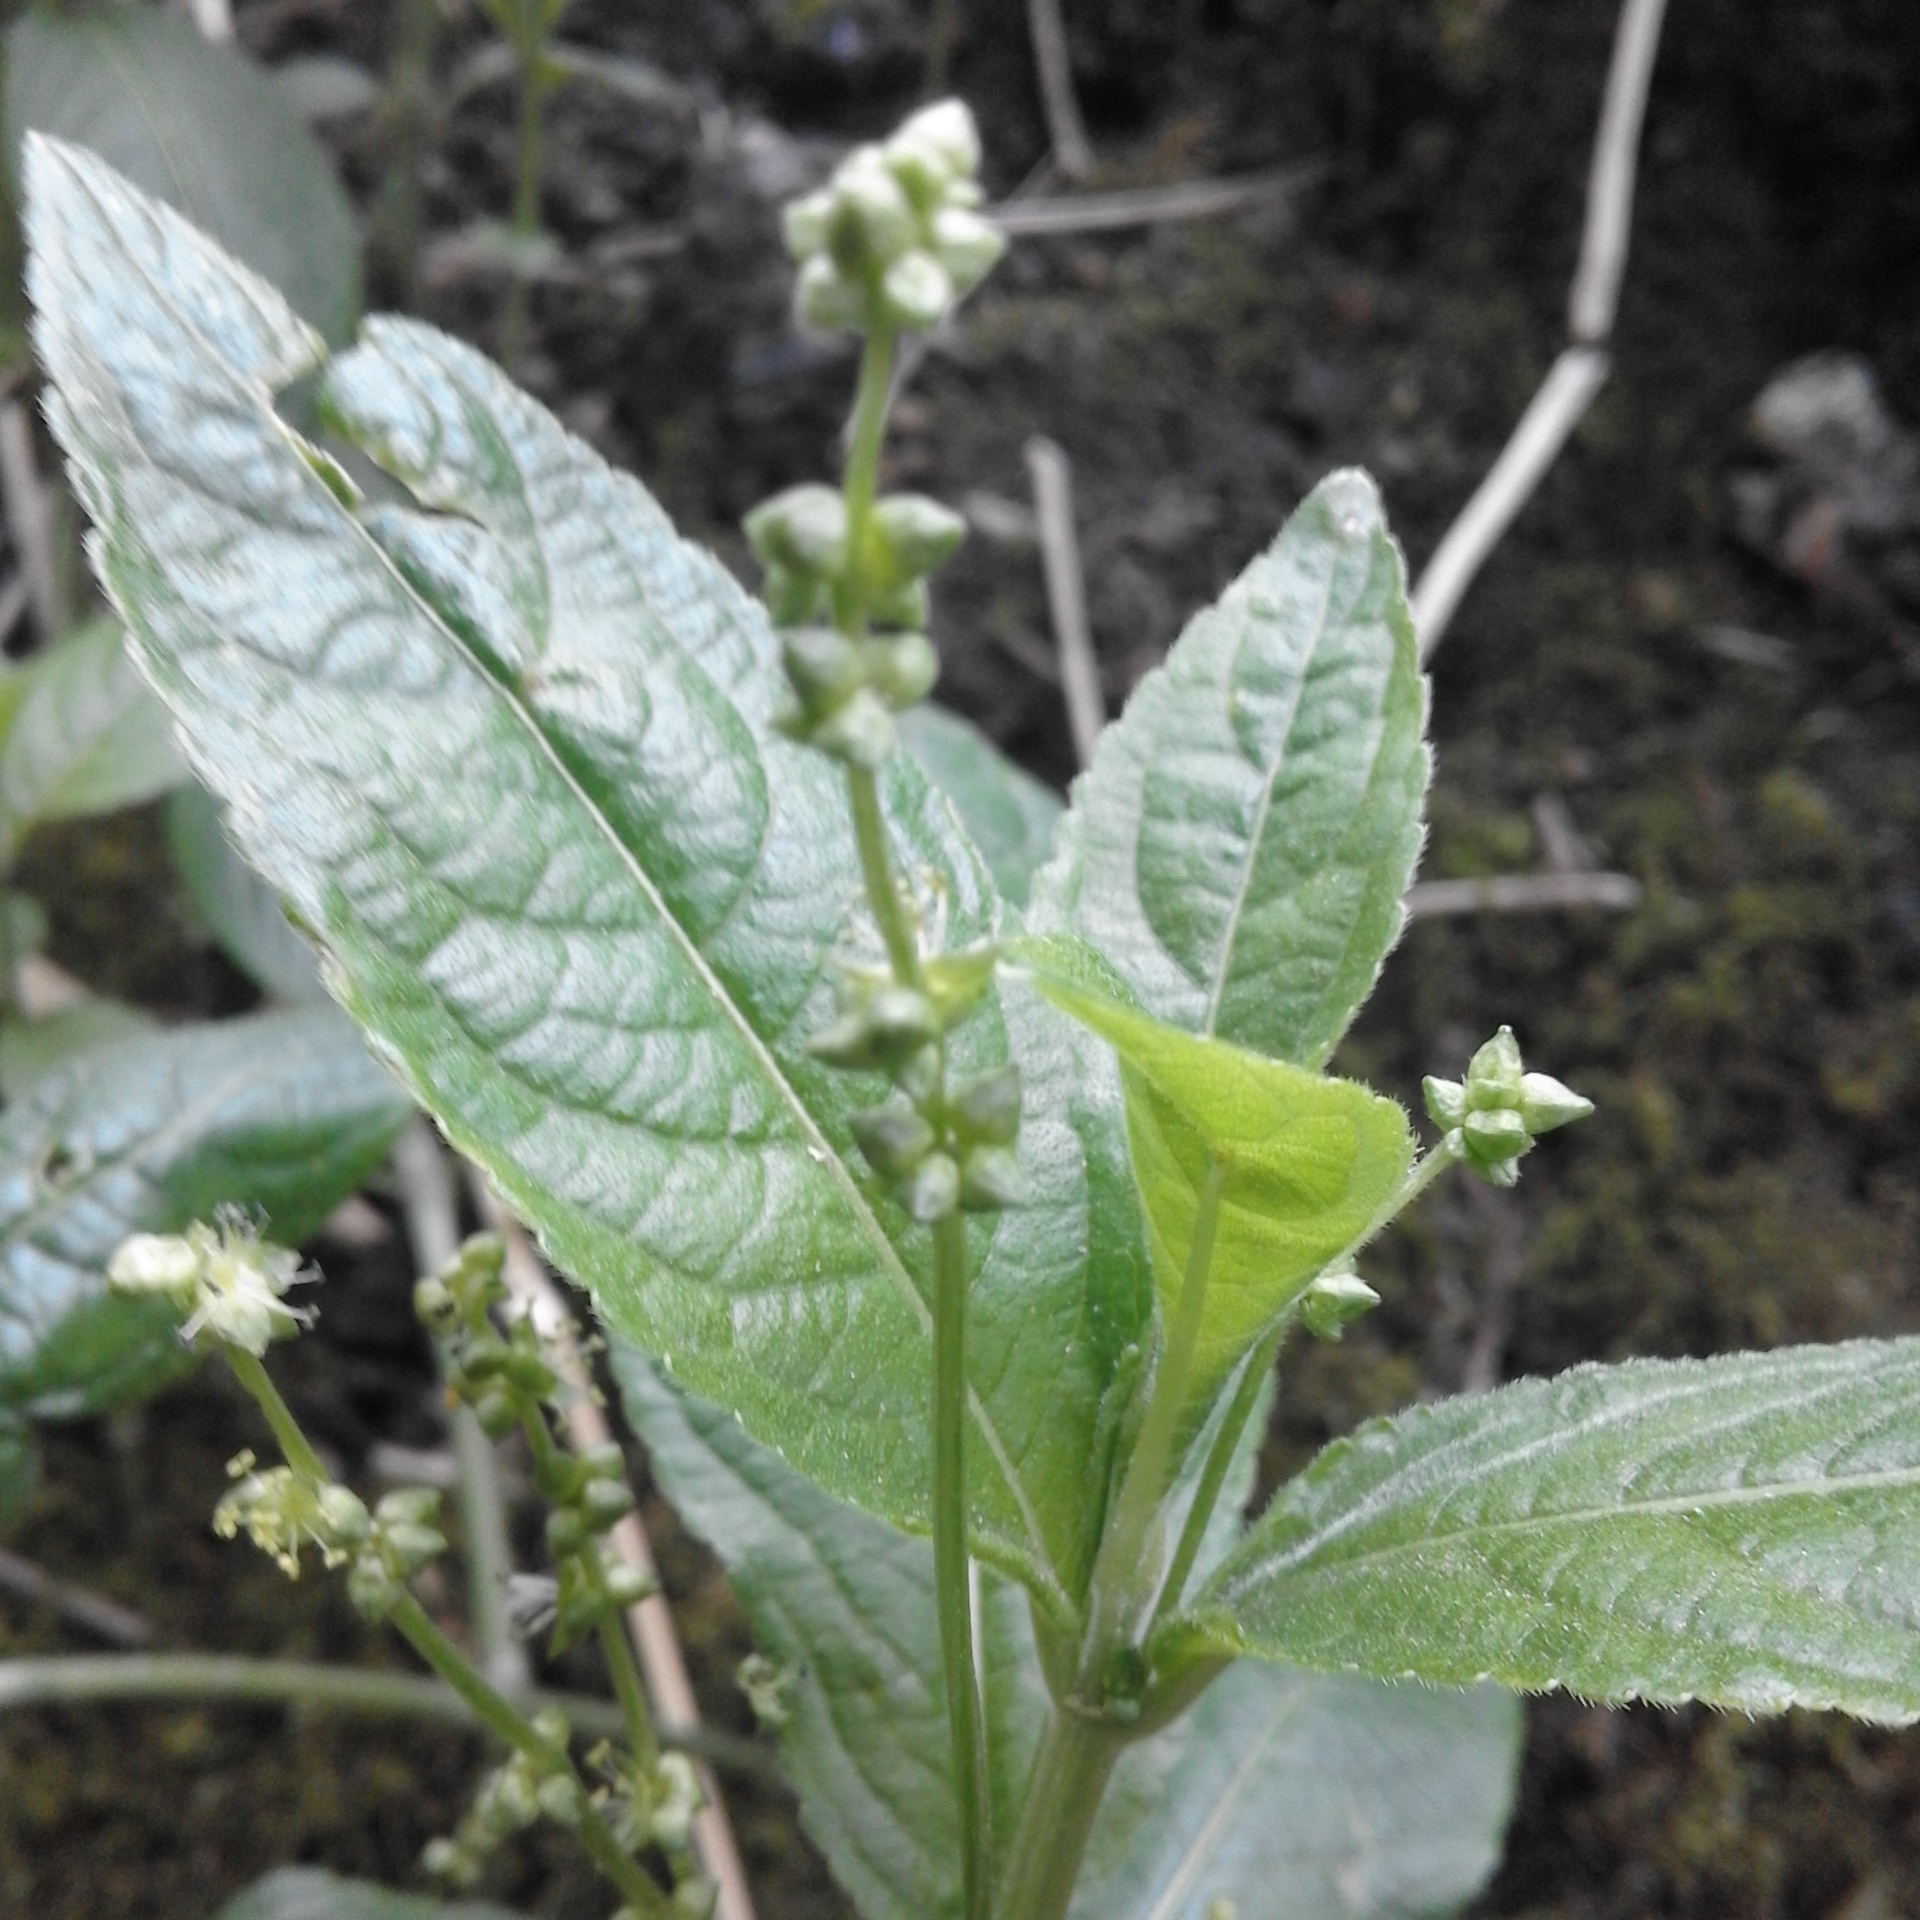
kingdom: Plantae
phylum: Tracheophyta
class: Magnoliopsida
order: Malpighiales
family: Euphorbiaceae
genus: Mercurialis
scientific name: Mercurialis perennis
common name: Dog mercury
